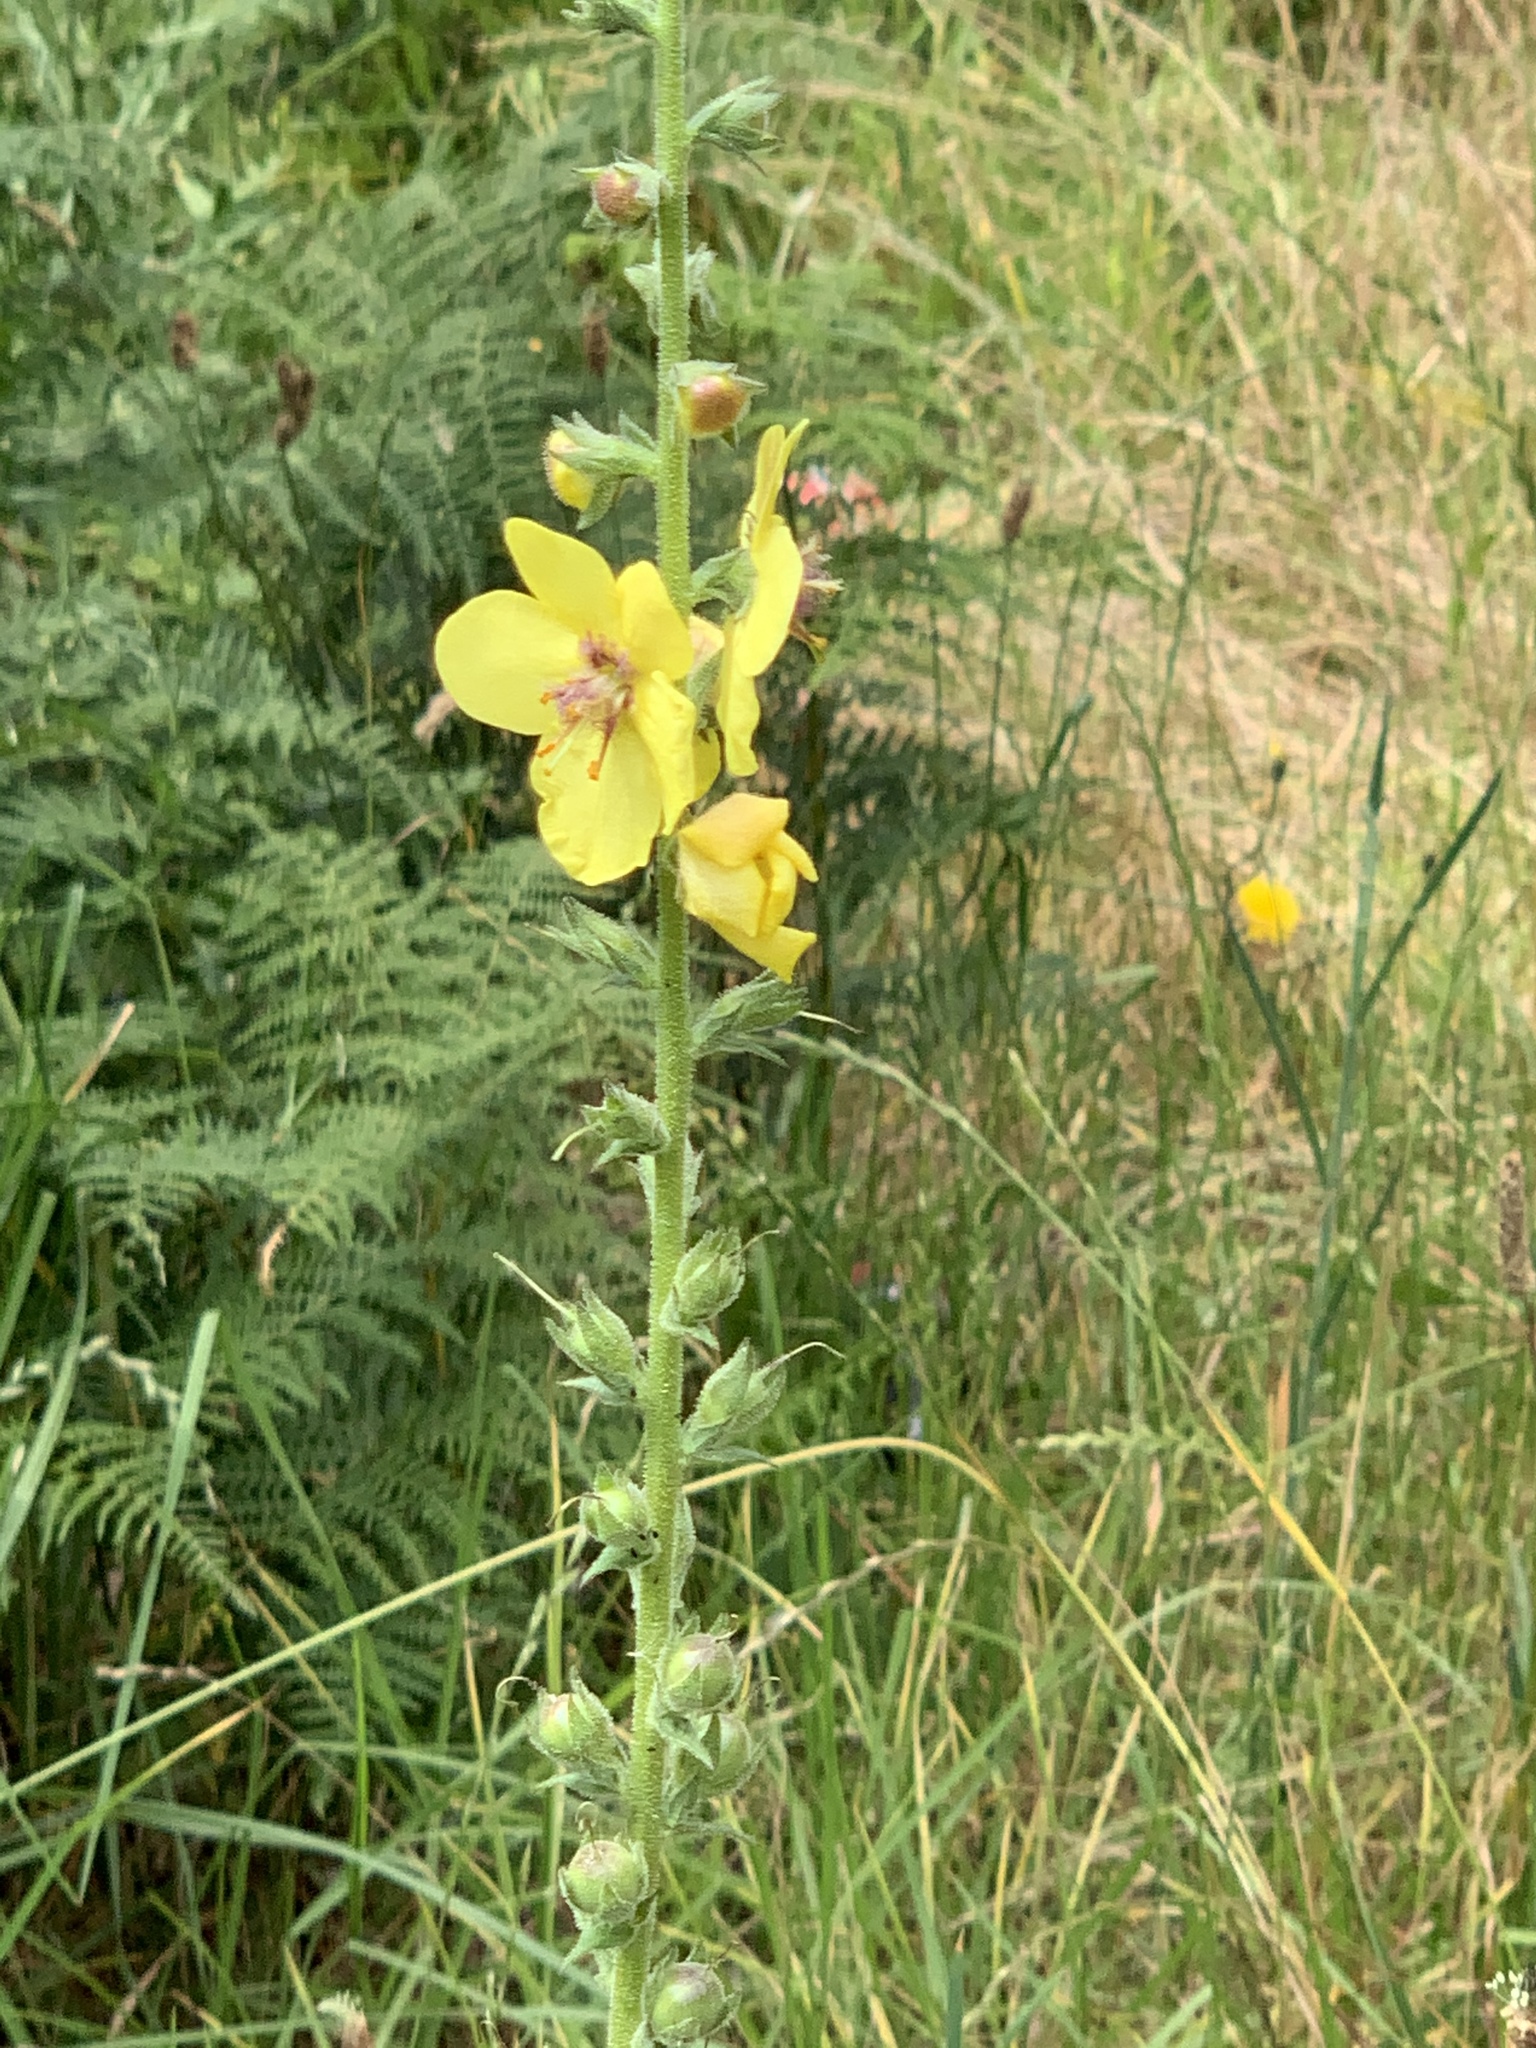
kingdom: Plantae
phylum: Tracheophyta
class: Magnoliopsida
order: Lamiales
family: Scrophulariaceae
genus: Verbascum
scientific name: Verbascum virgatum
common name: Twiggy mullein
